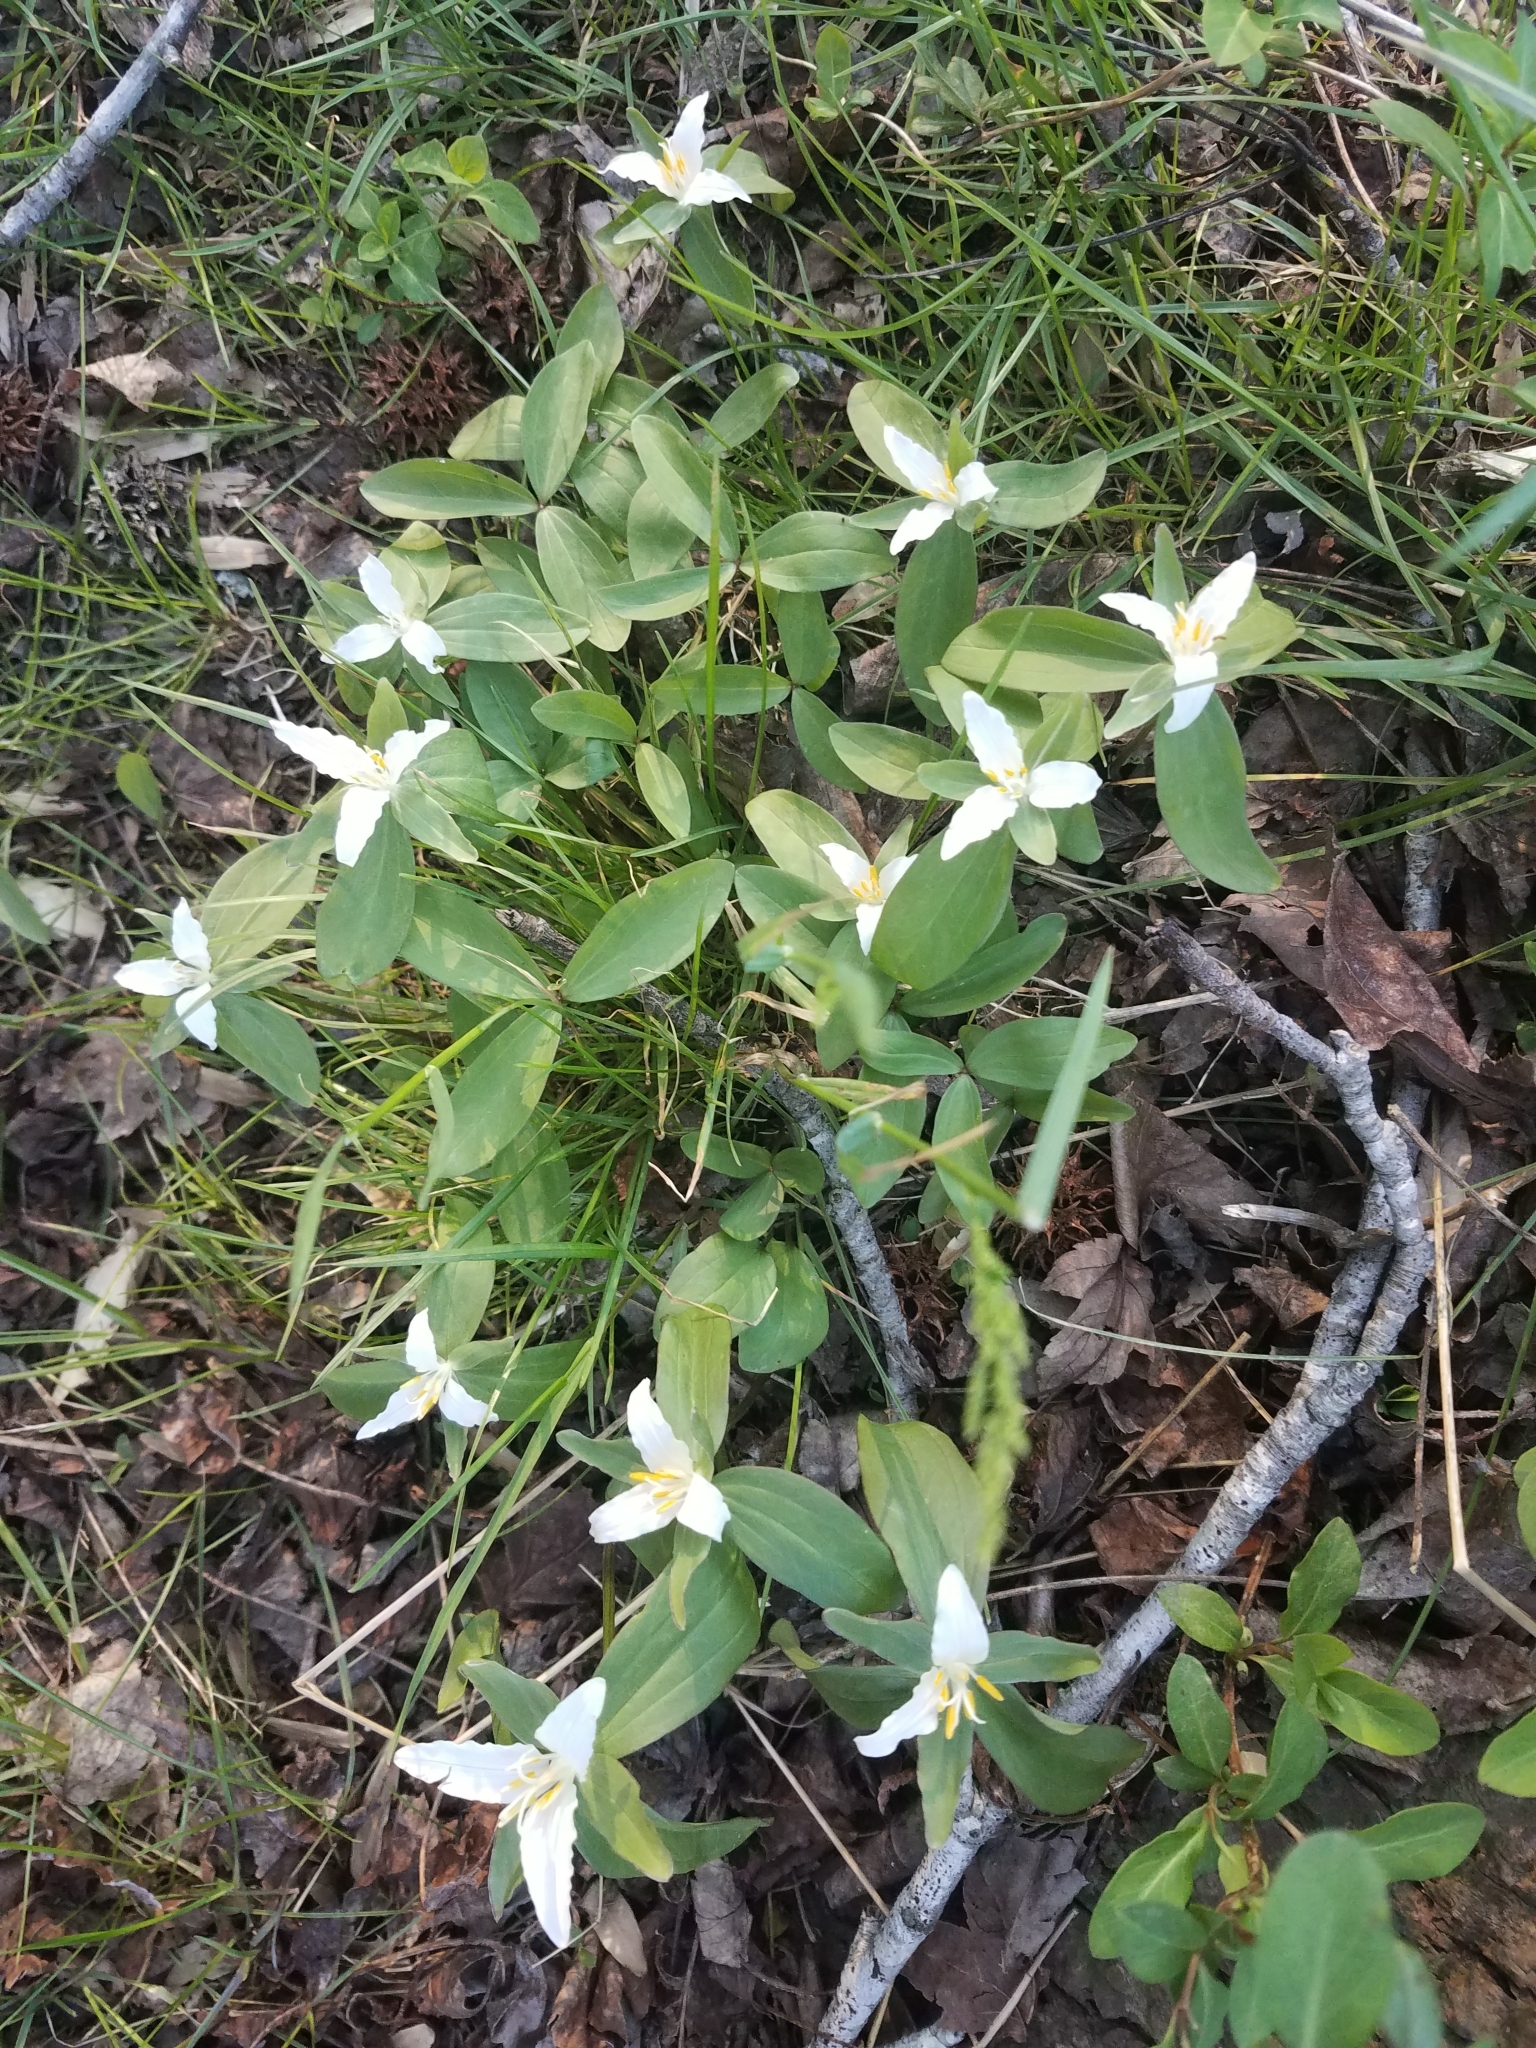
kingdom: Plantae
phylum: Tracheophyta
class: Liliopsida
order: Liliales
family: Melanthiaceae
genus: Trillium
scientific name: Trillium pusillum
